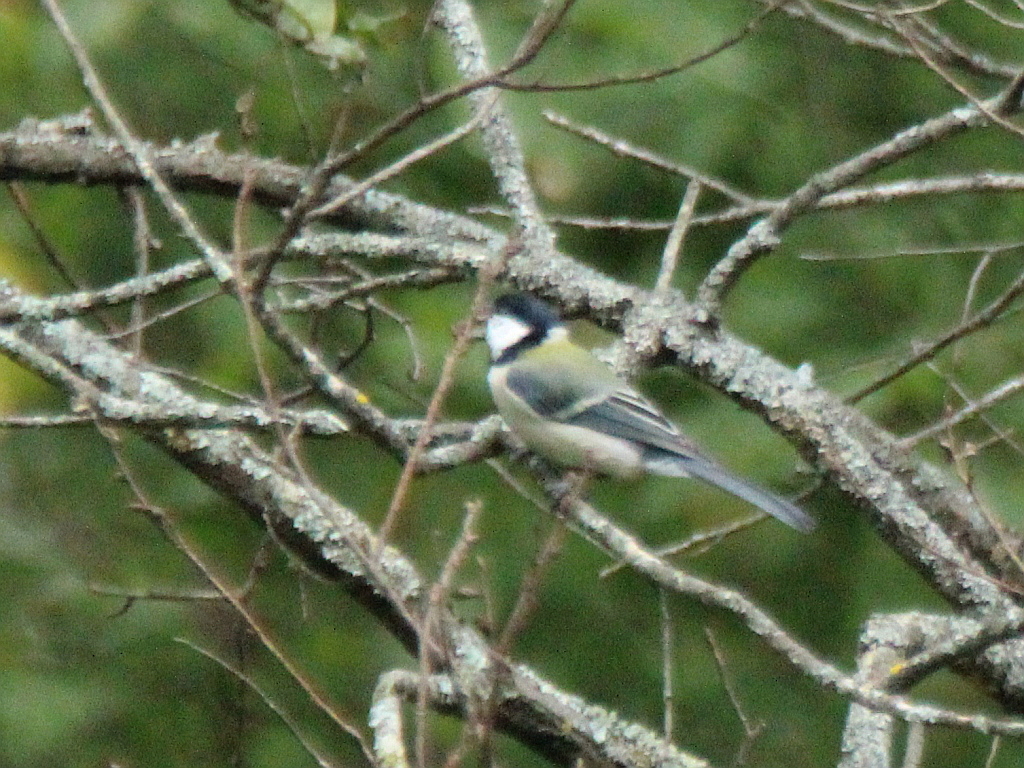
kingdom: Animalia
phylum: Chordata
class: Aves
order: Passeriformes
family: Paridae
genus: Parus
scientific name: Parus minor
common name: Japanese tit
